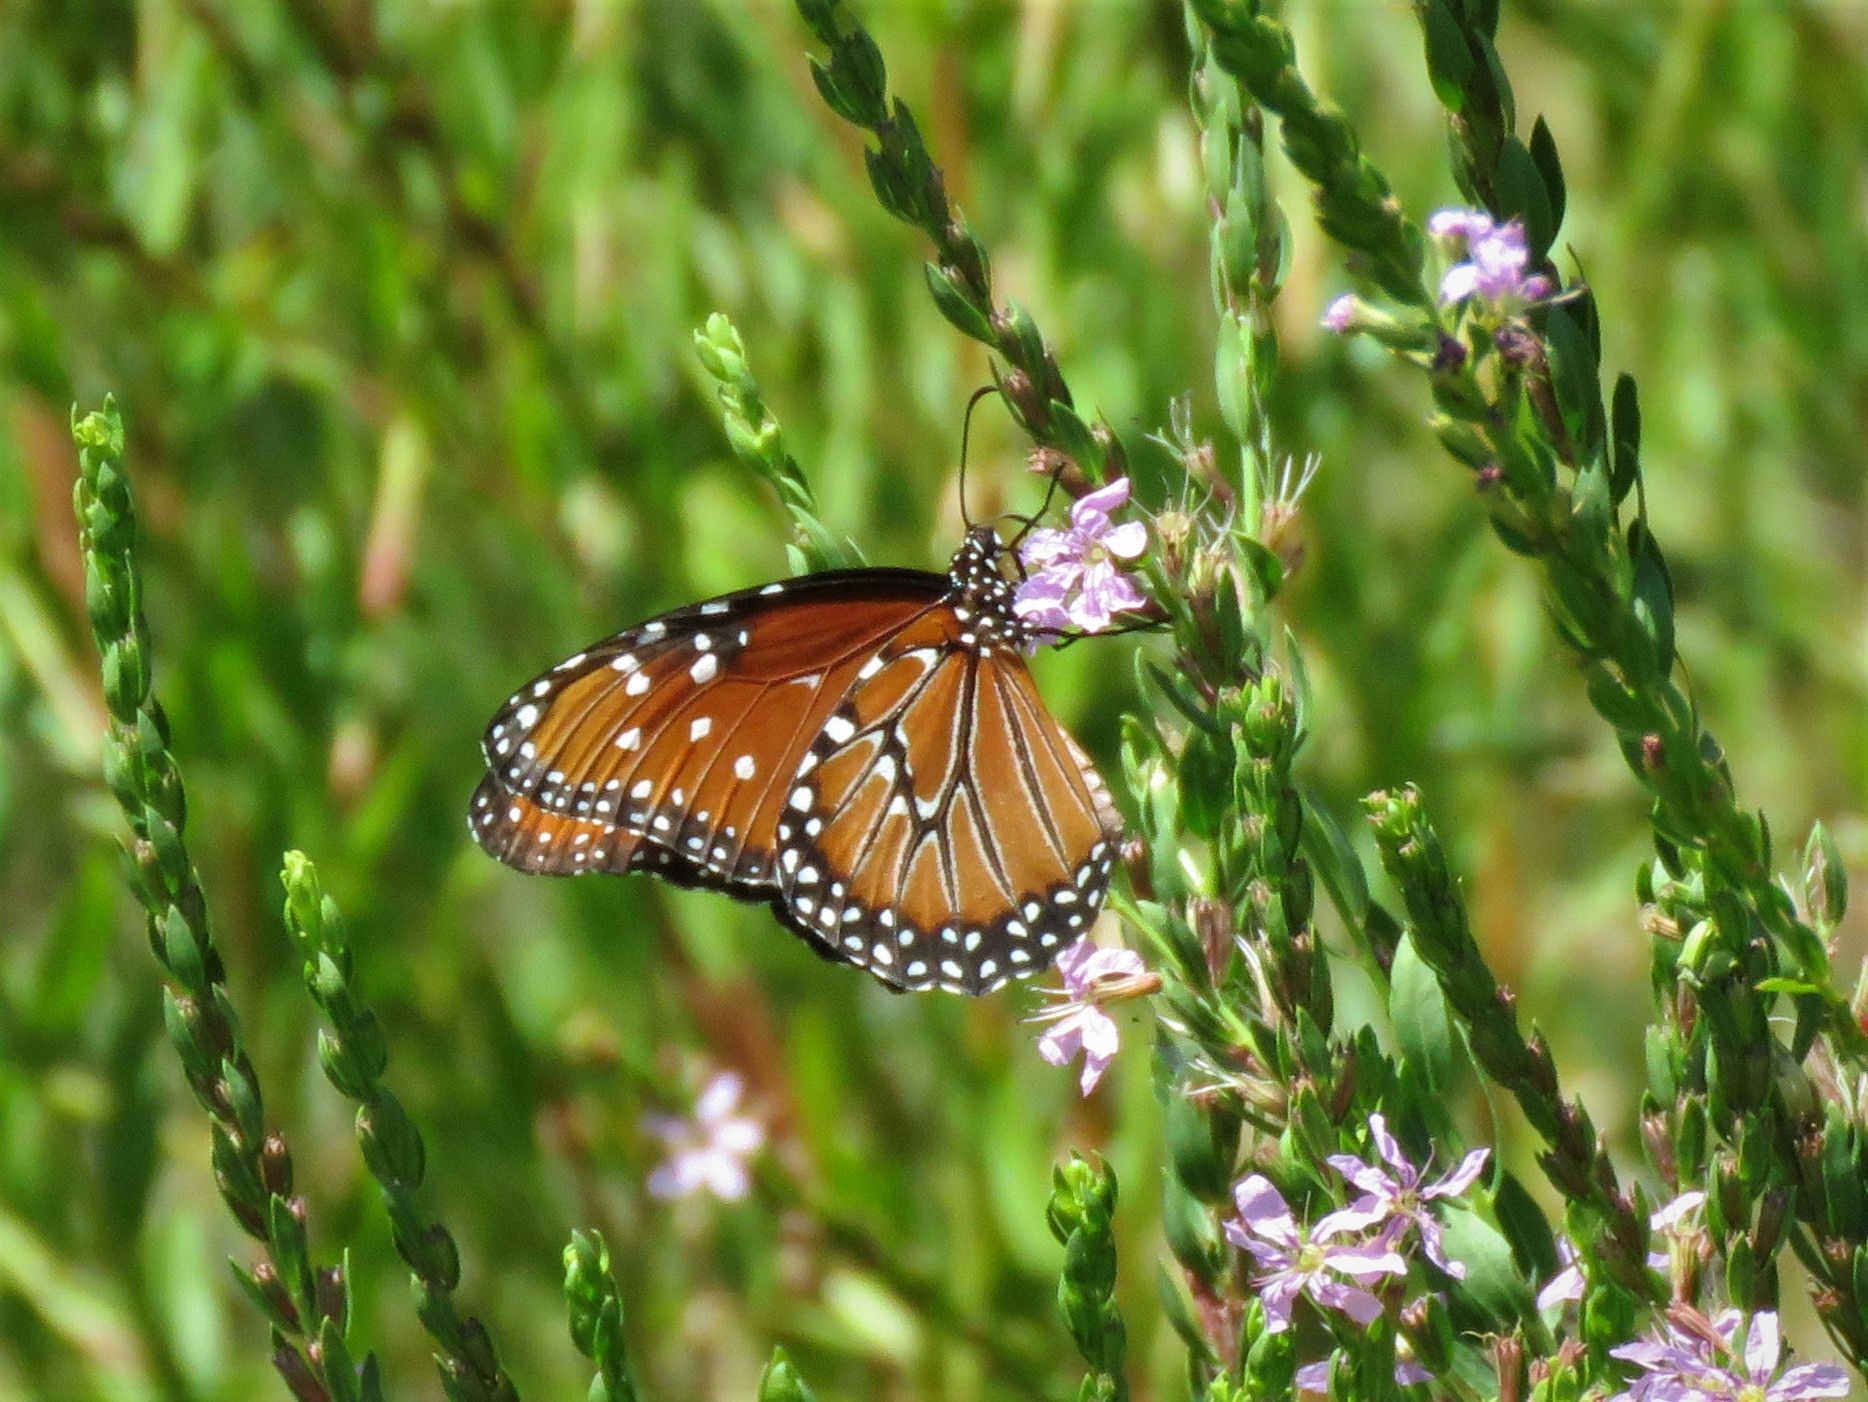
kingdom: Animalia
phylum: Arthropoda
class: Insecta
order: Lepidoptera
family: Nymphalidae
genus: Danaus
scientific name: Danaus gilippus
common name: Queen
